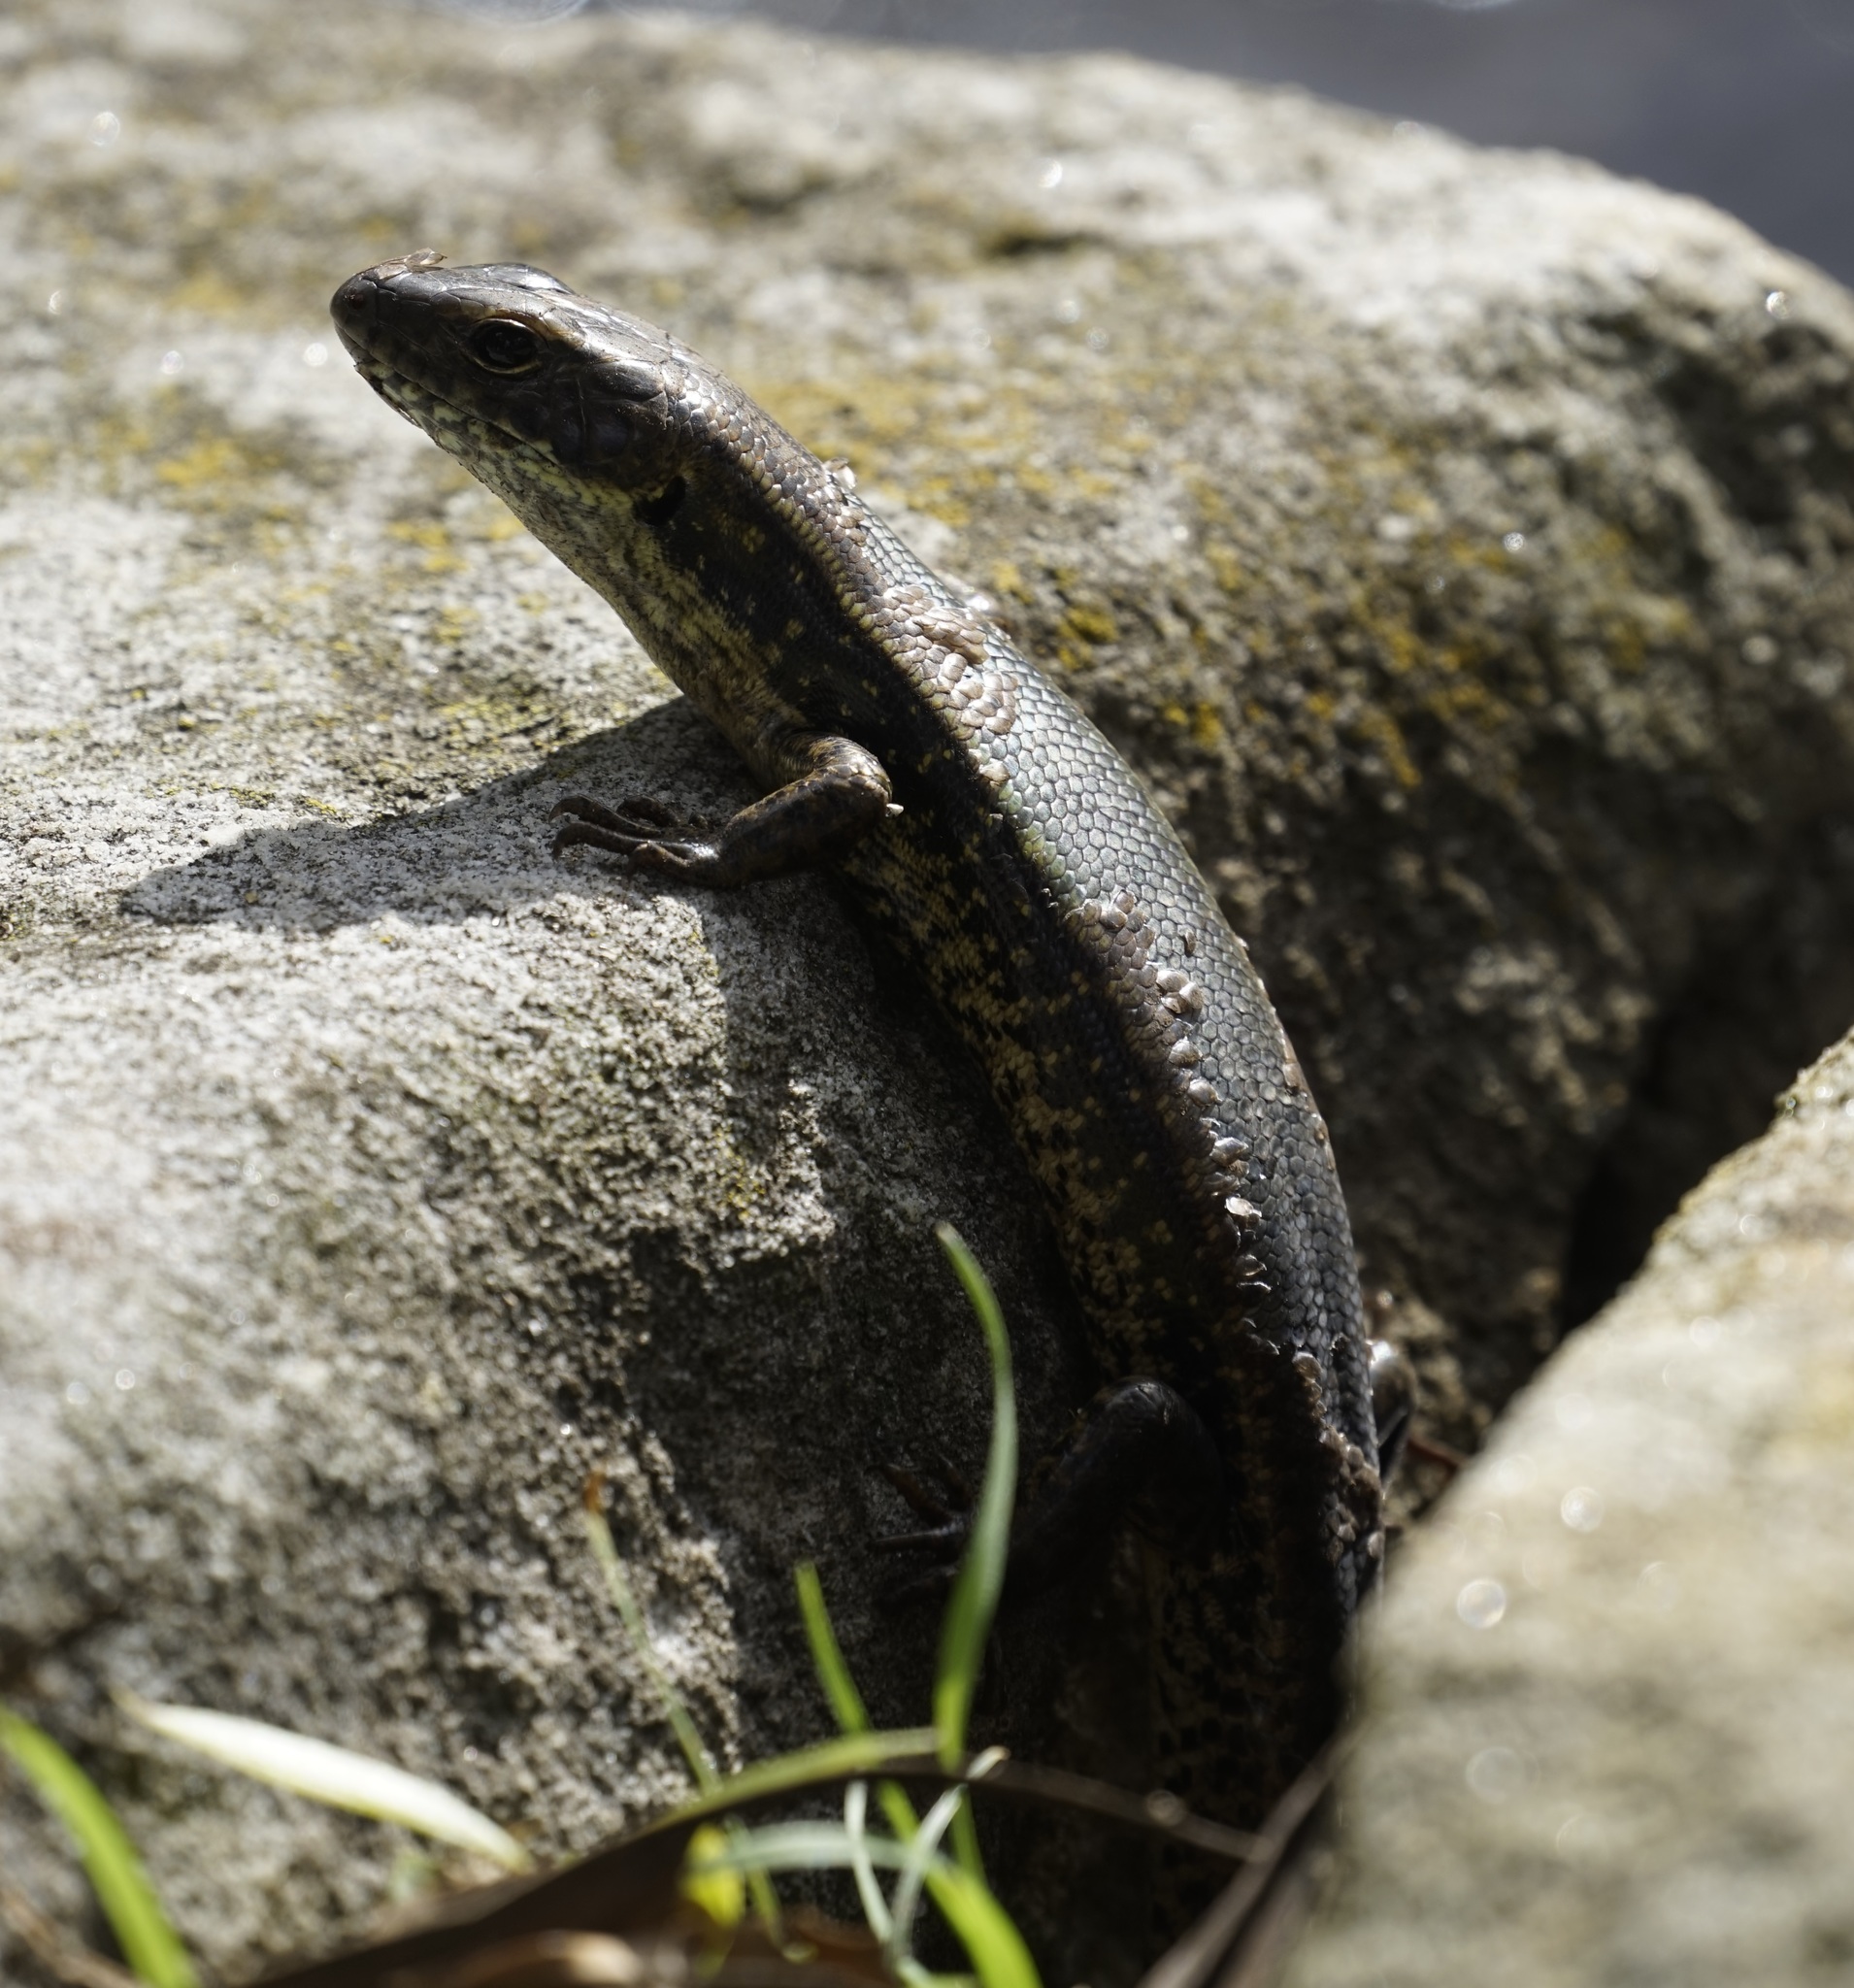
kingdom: Animalia
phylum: Chordata
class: Squamata
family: Scincidae
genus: Eulamprus
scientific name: Eulamprus quoyii
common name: Eastern water skink
